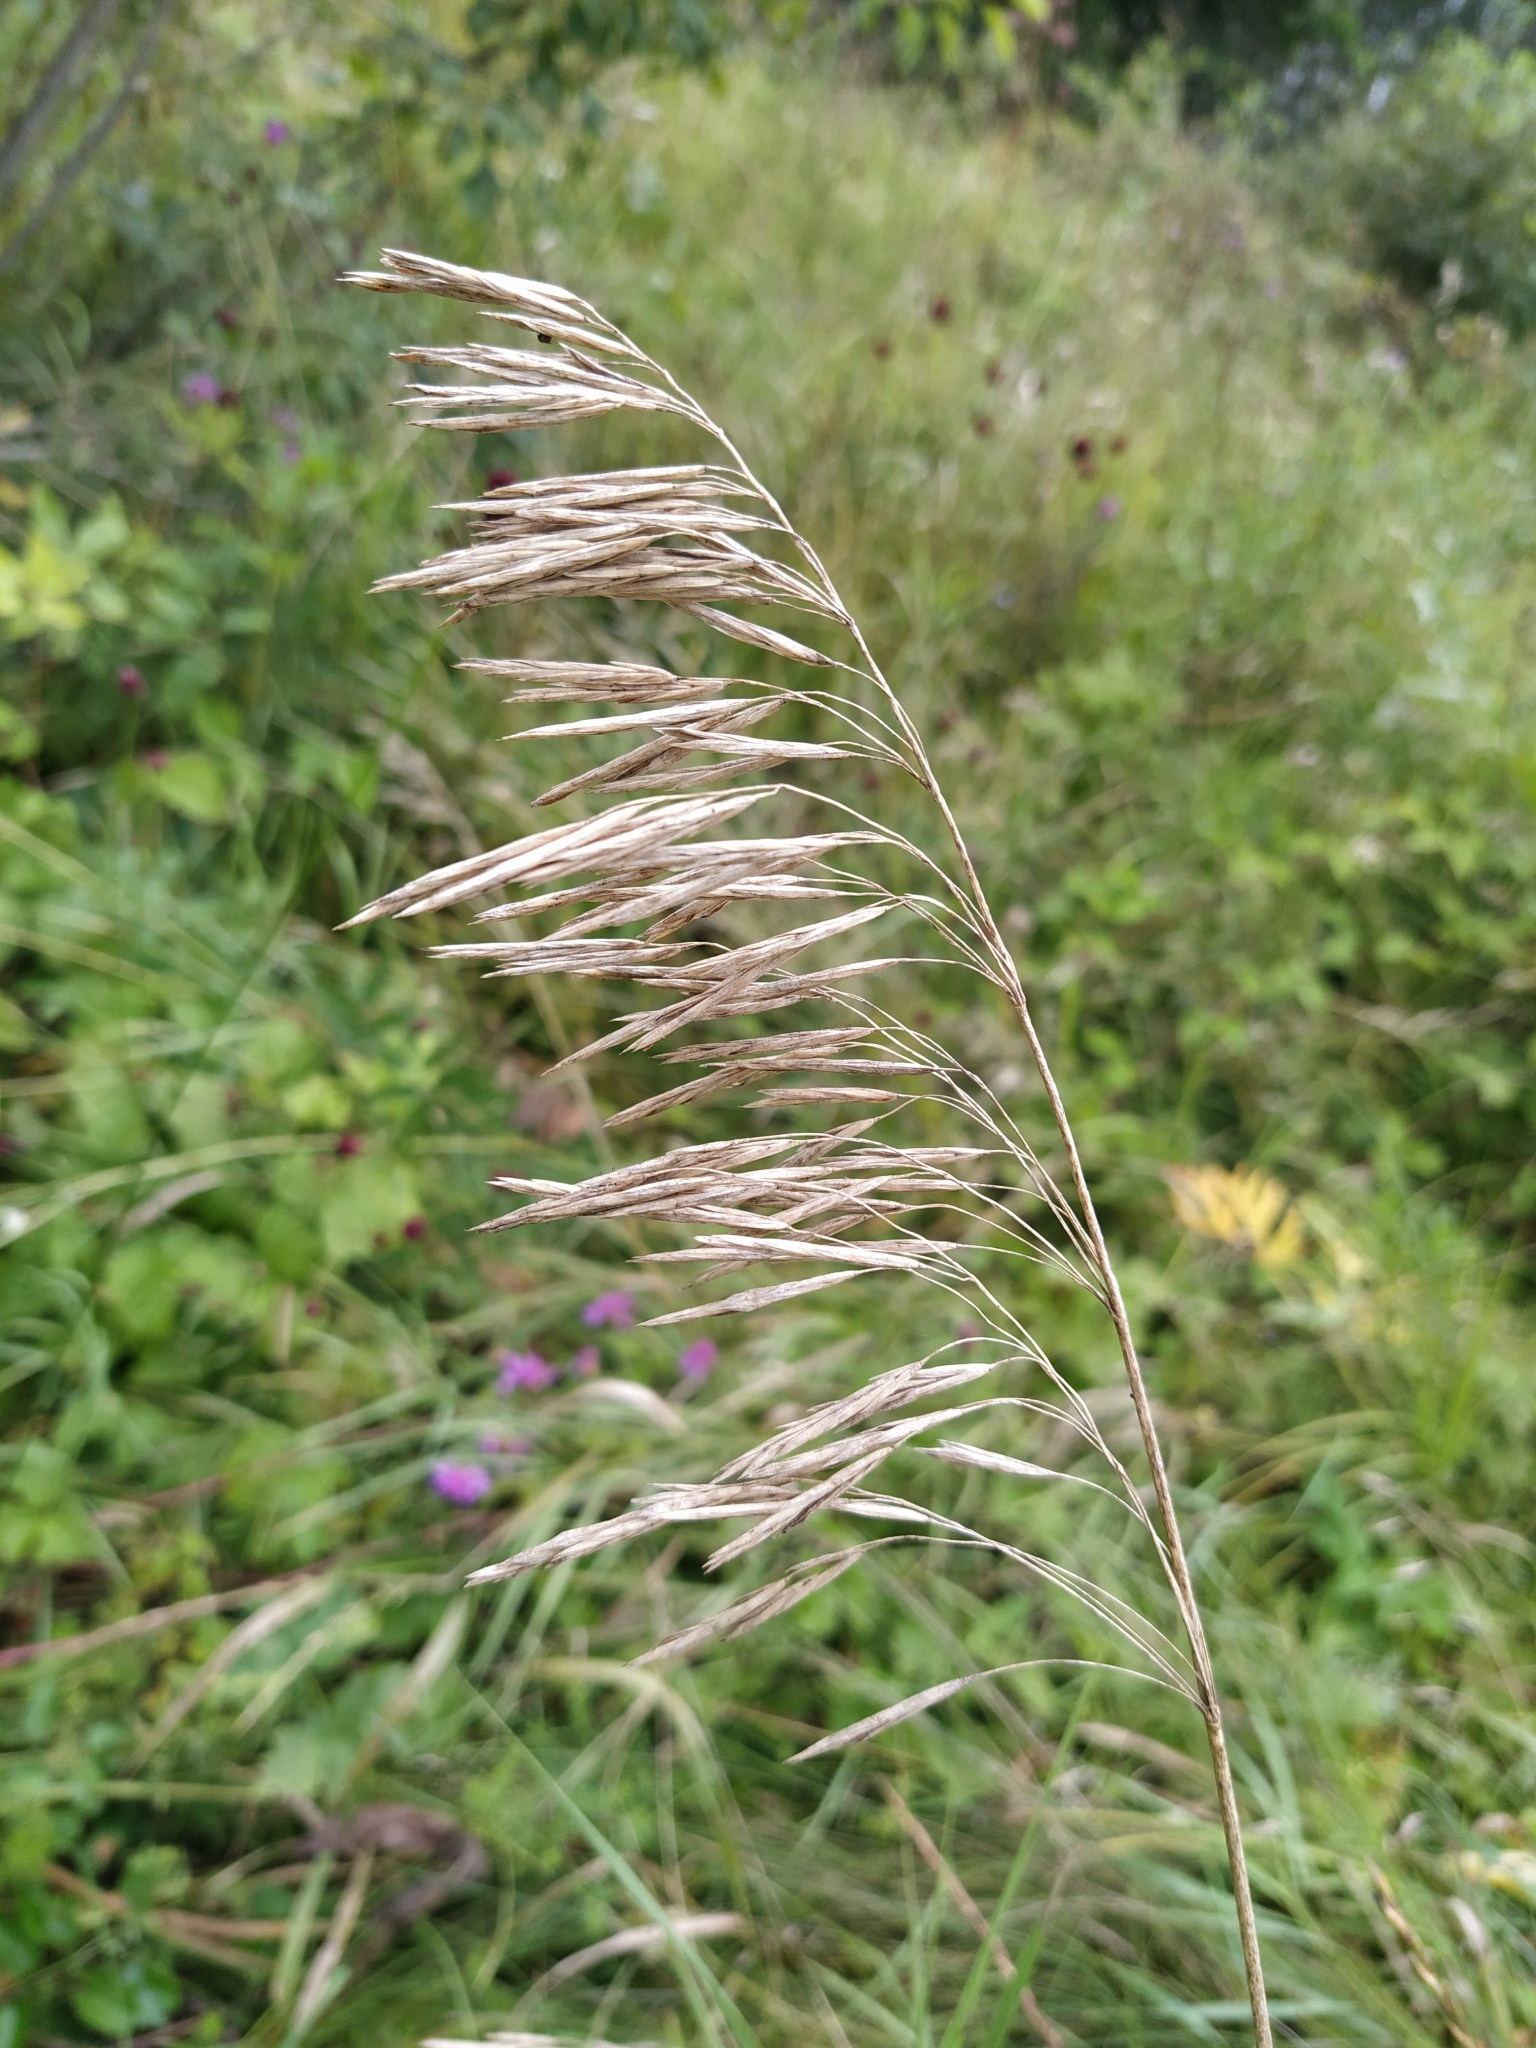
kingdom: Plantae
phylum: Tracheophyta
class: Liliopsida
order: Poales
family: Poaceae
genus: Bromus
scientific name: Bromus inermis
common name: Smooth brome
